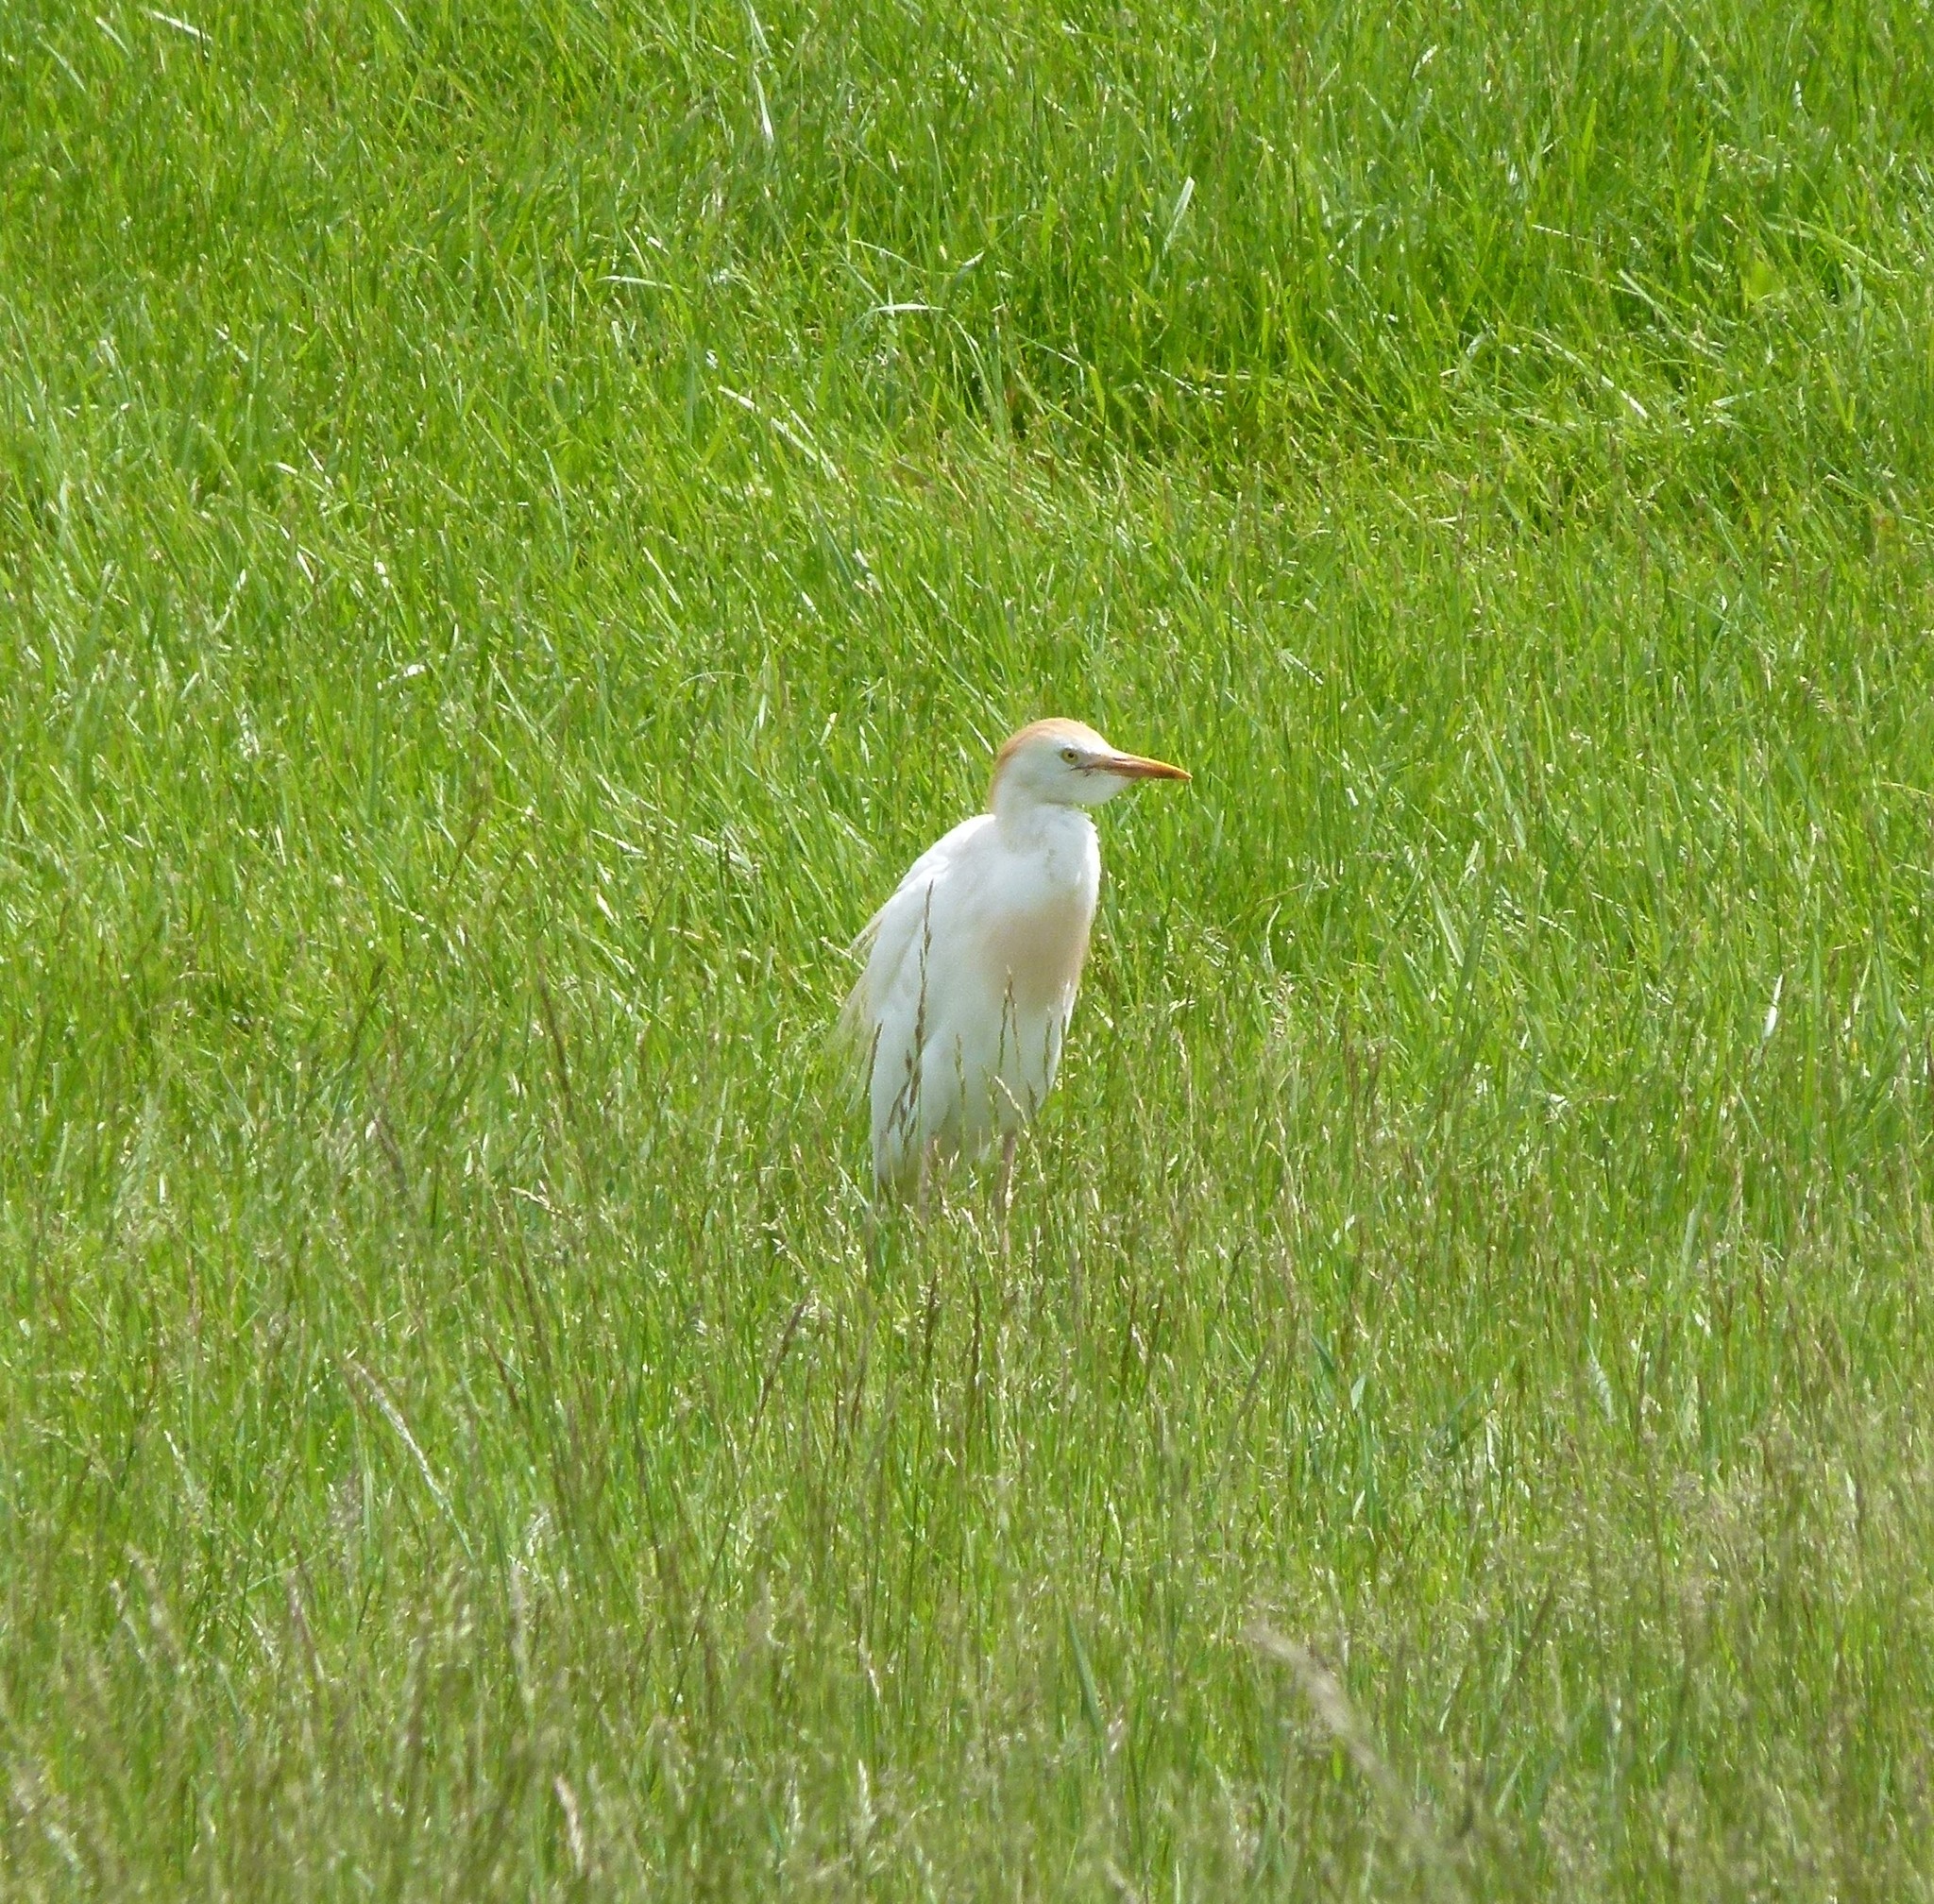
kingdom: Animalia
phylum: Chordata
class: Aves
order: Pelecaniformes
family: Ardeidae
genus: Bubulcus
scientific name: Bubulcus ibis
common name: Cattle egret
